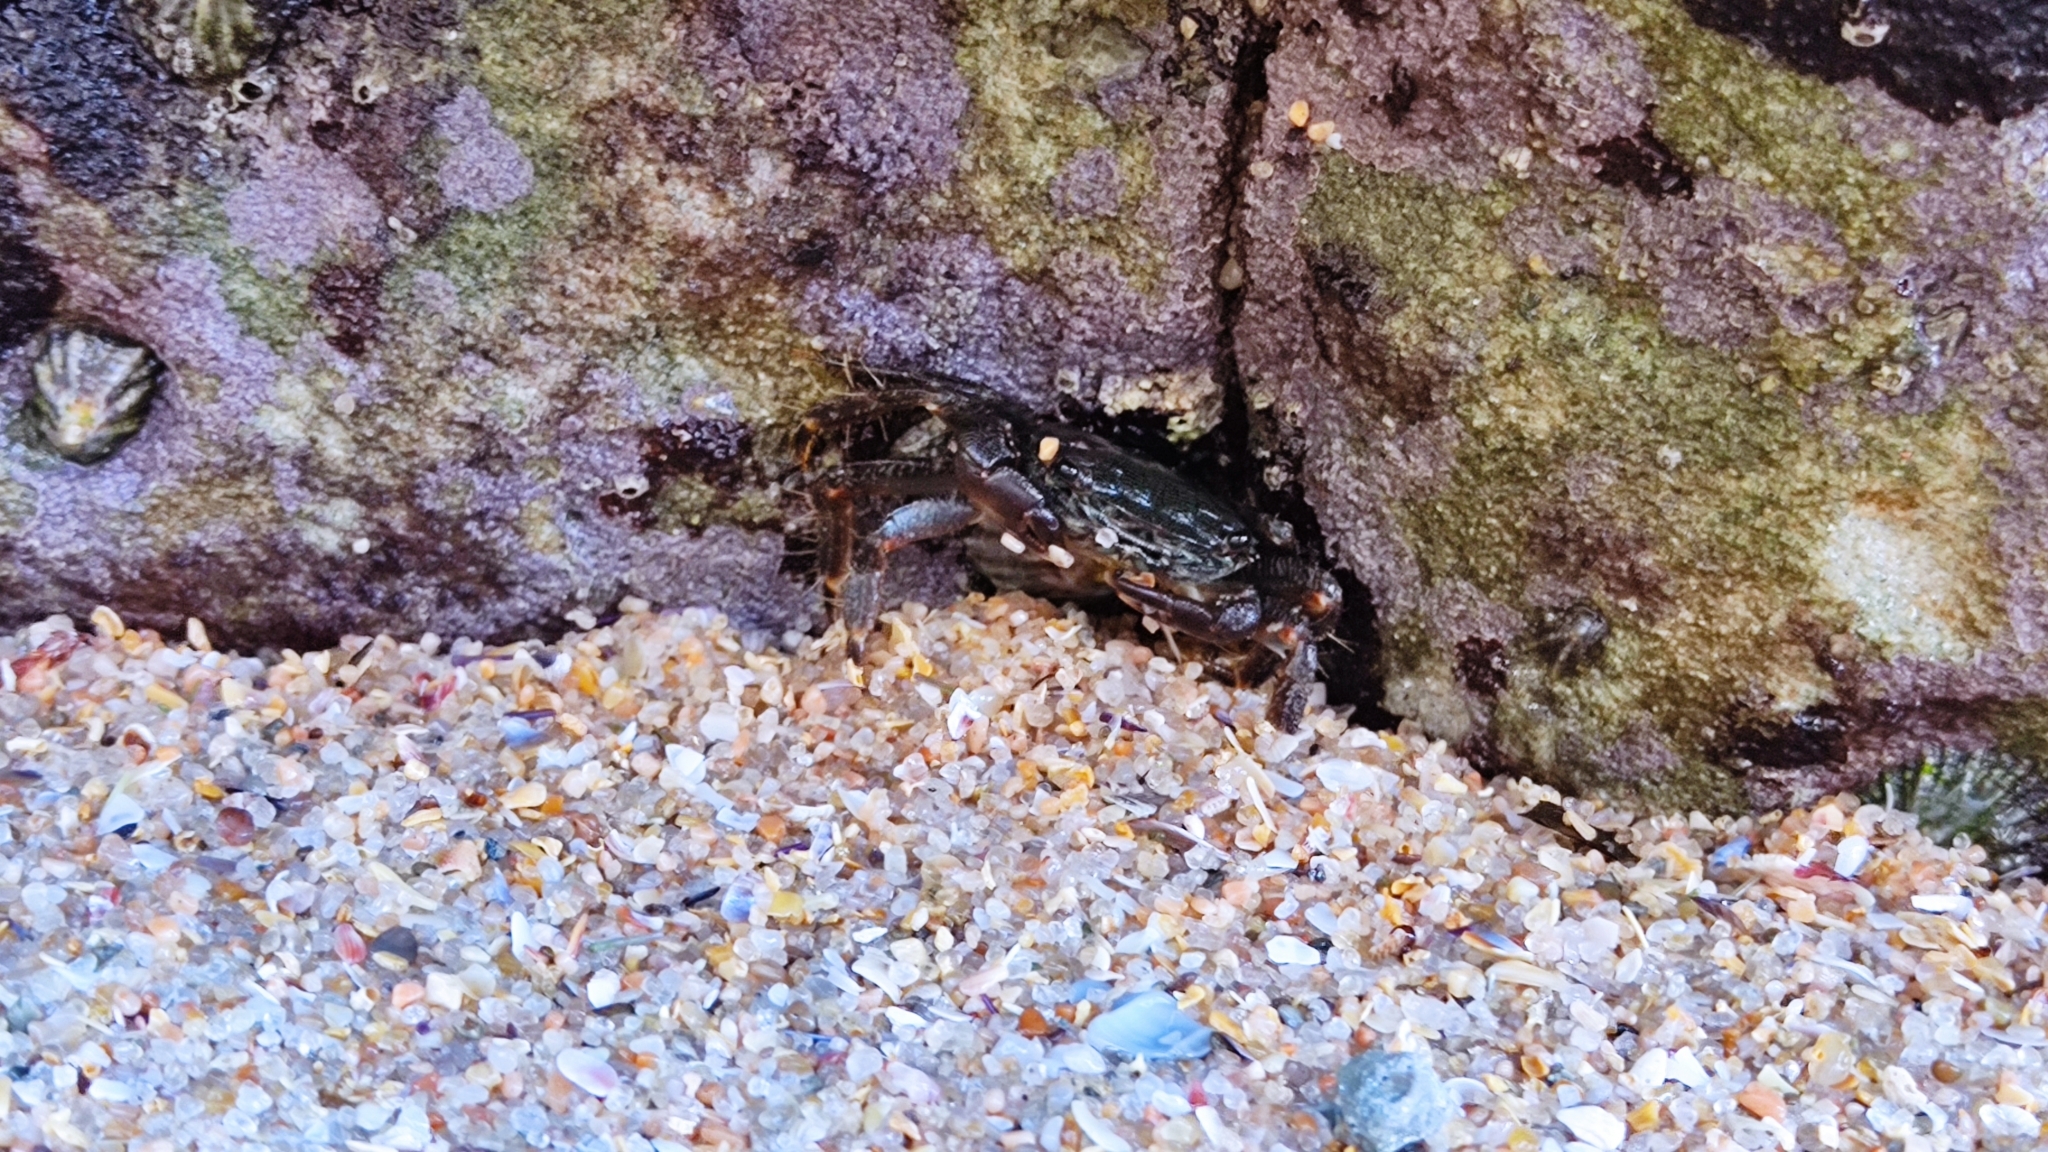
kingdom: Animalia
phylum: Arthropoda
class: Malacostraca
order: Decapoda
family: Grapsidae
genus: Pachygrapsus
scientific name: Pachygrapsus marmoratus
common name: Marbled rock crab
